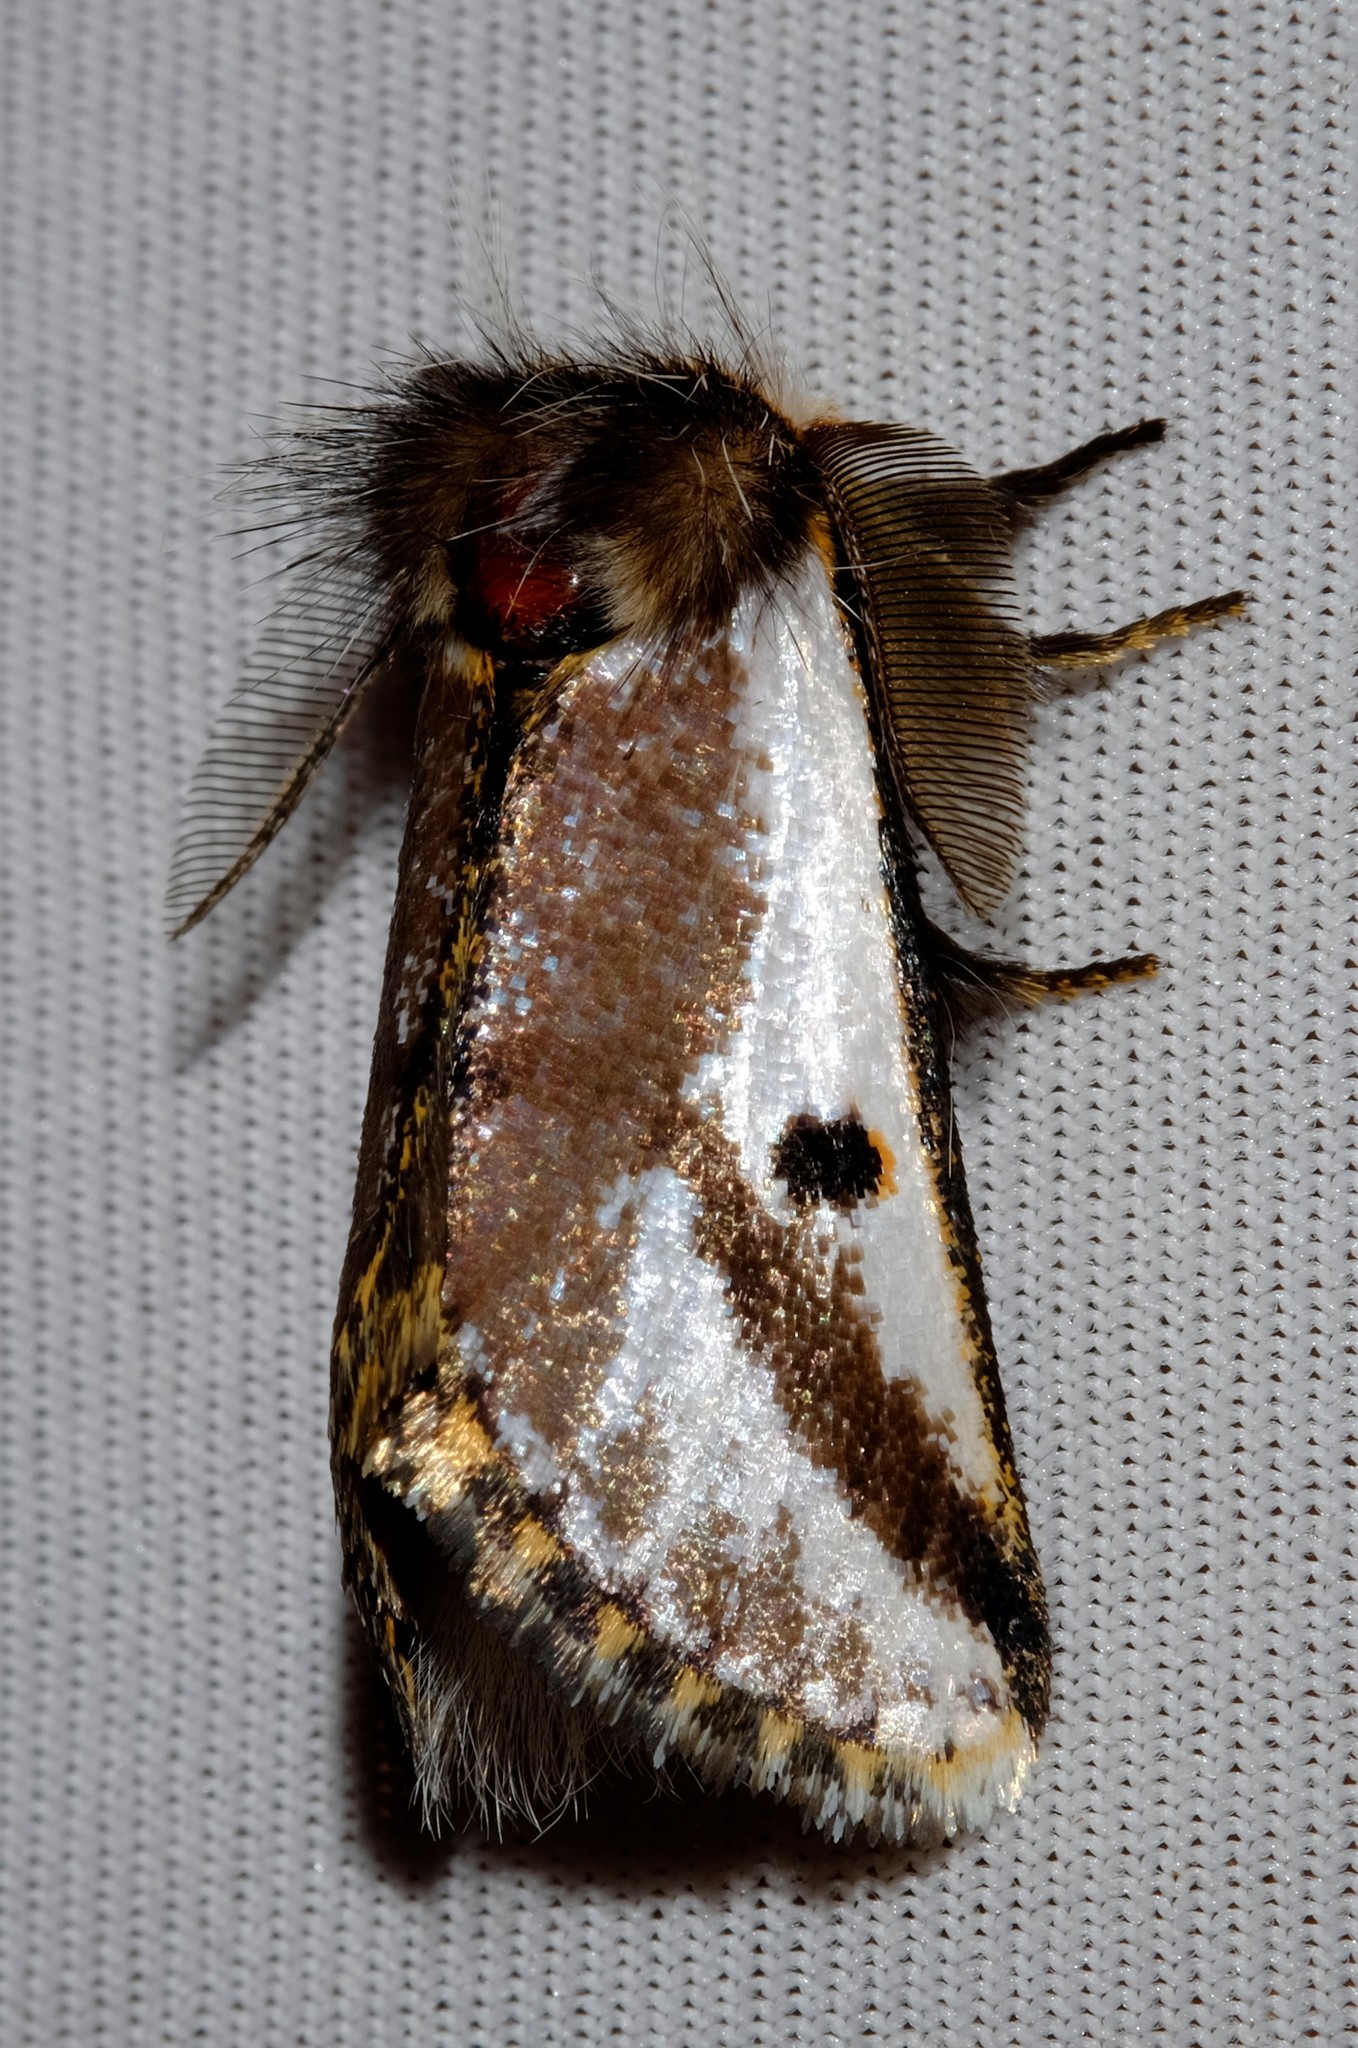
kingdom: Animalia
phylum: Arthropoda
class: Insecta
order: Lepidoptera
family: Notodontidae
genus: Epicoma
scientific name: Epicoma melanospila
